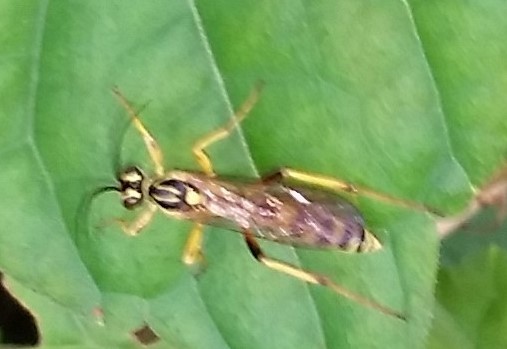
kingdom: Animalia
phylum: Arthropoda
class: Insecta
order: Hymenoptera
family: Ichneumonidae
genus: Setanta
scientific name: Setanta compta
